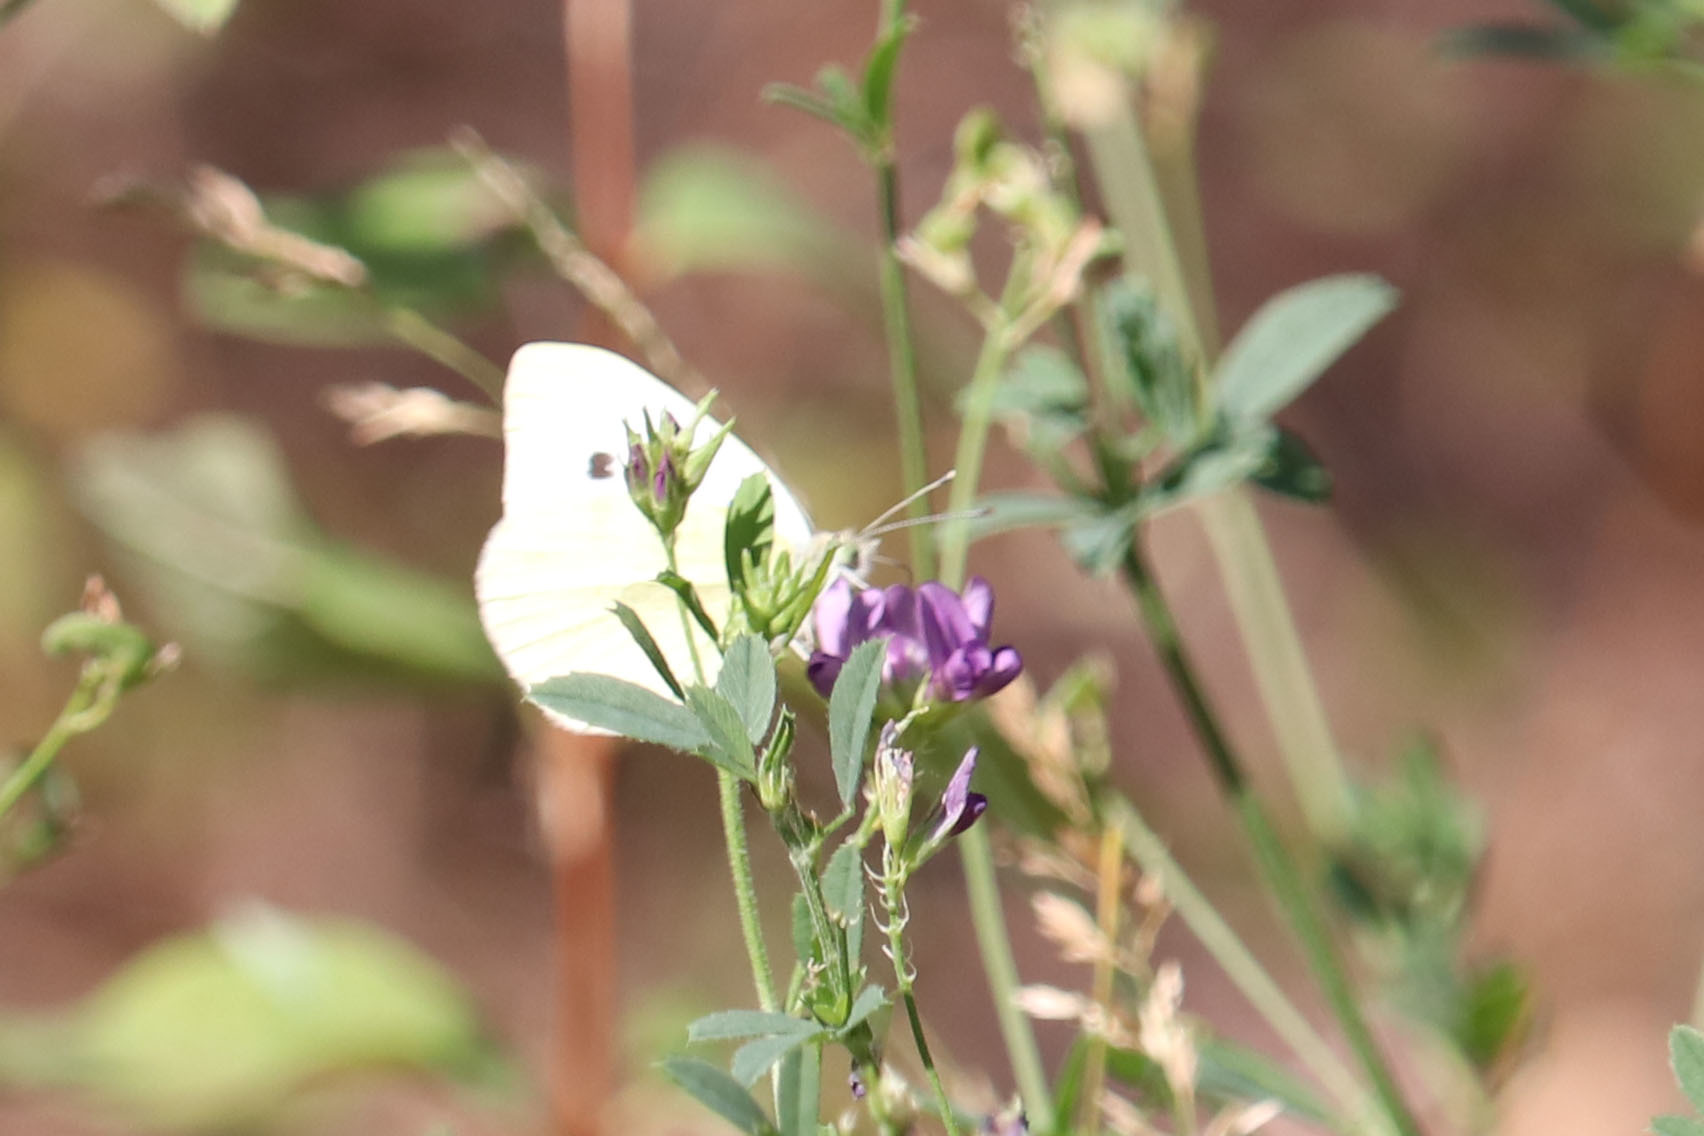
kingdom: Animalia
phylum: Arthropoda
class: Insecta
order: Lepidoptera
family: Pieridae
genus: Pieris
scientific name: Pieris rapae
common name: Small white
